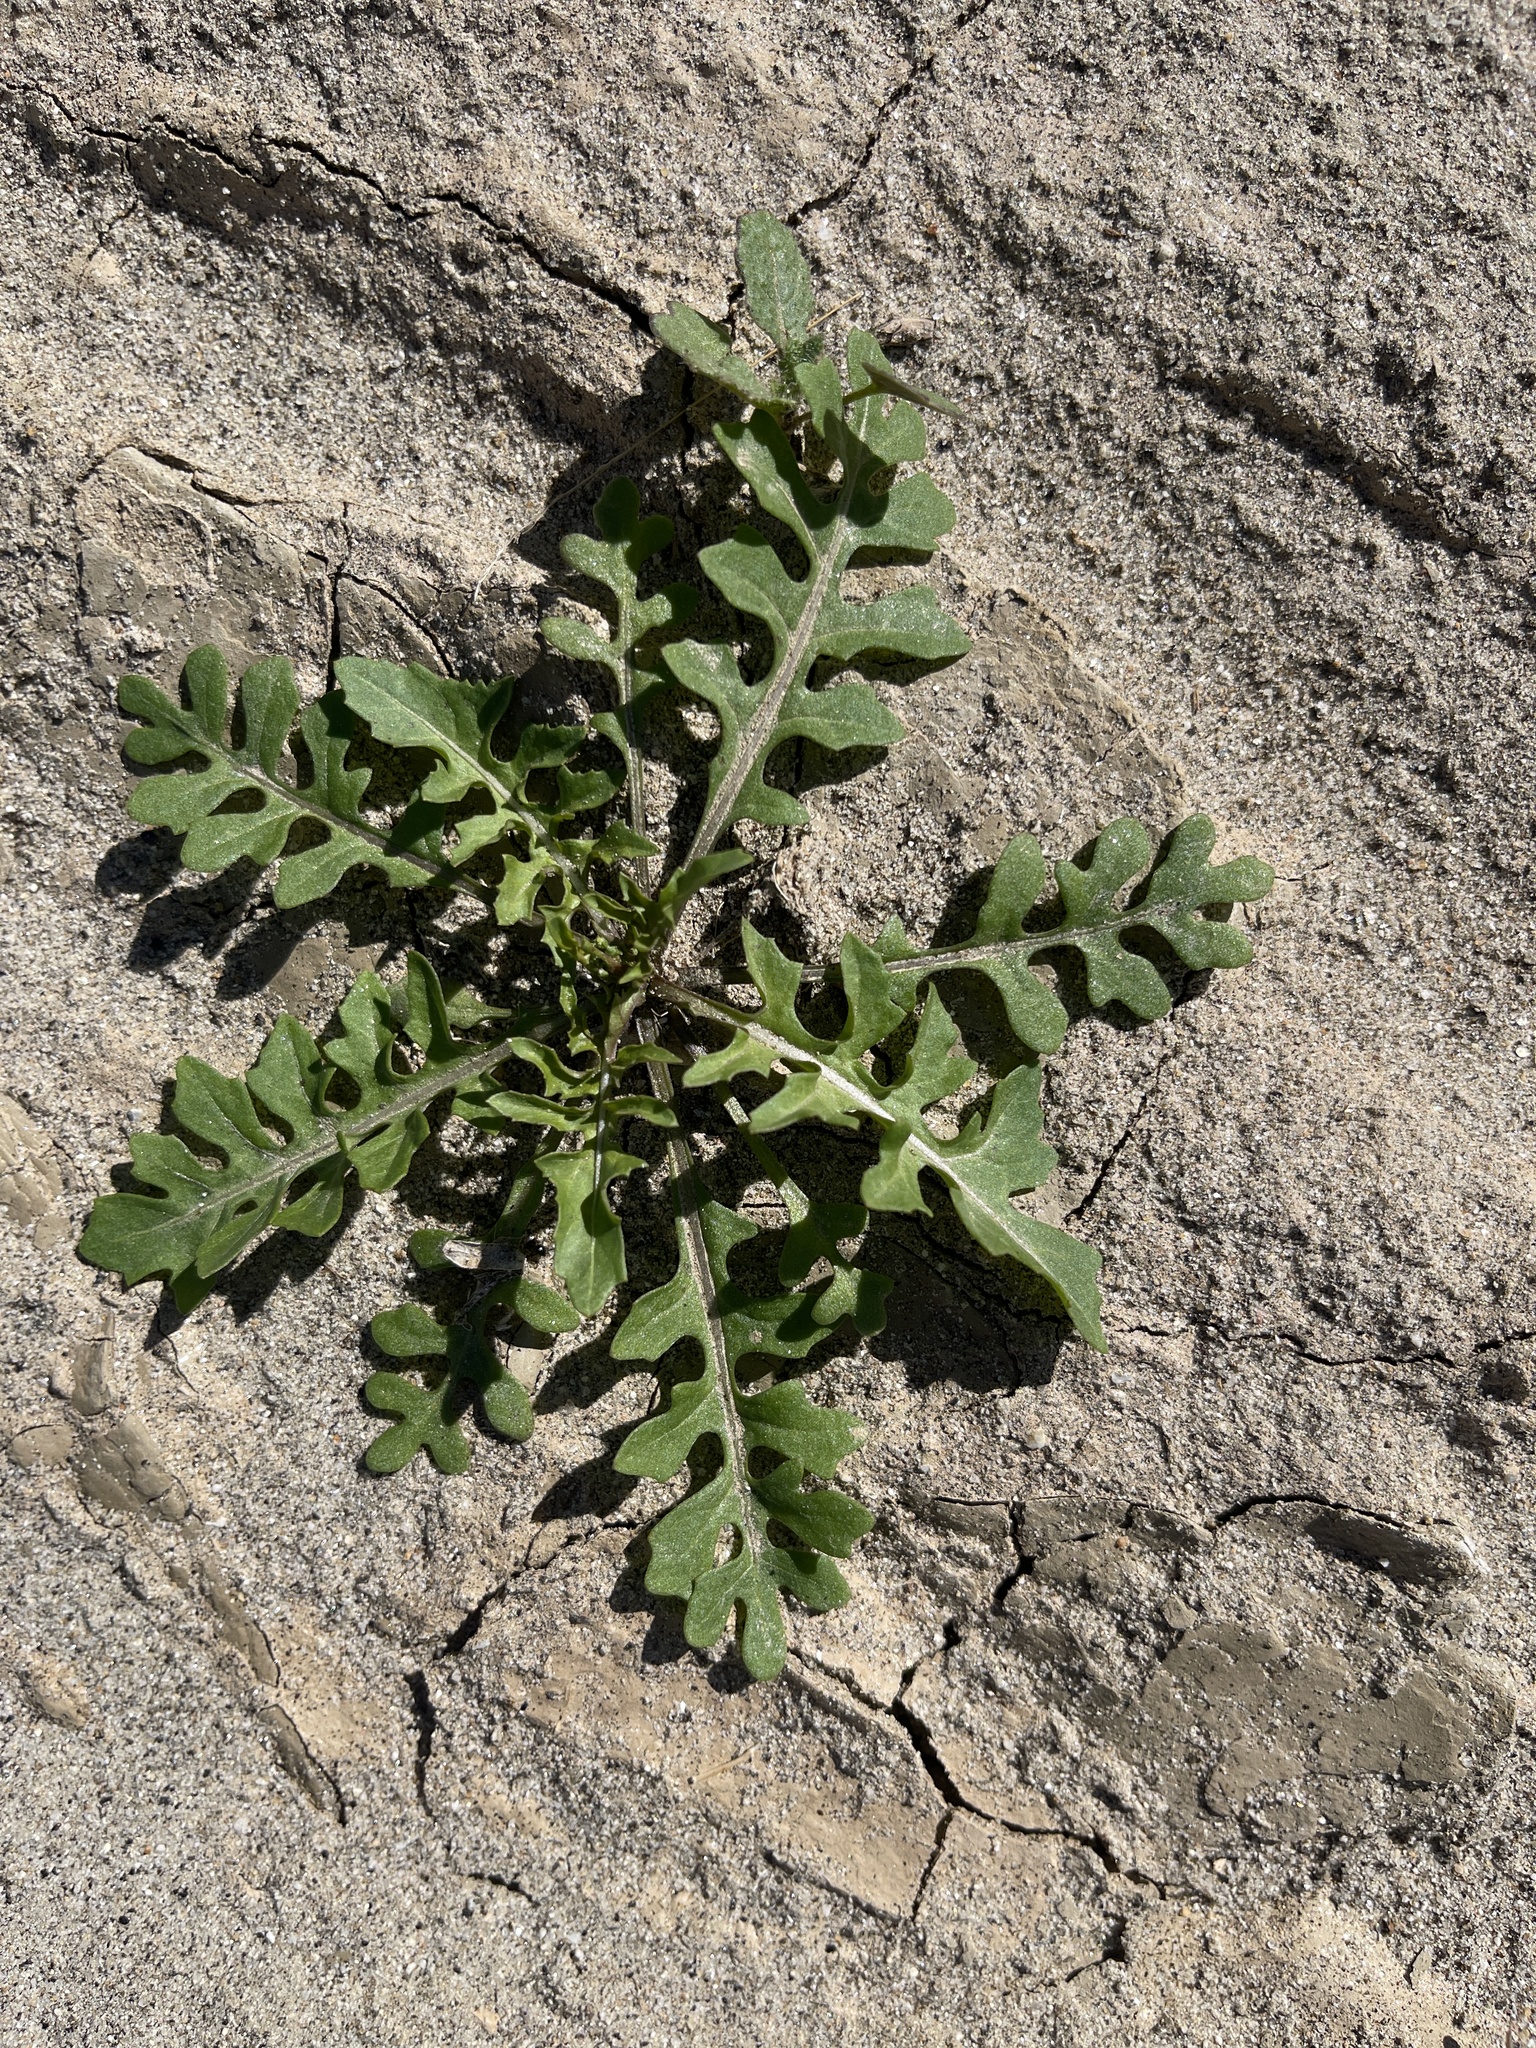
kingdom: Plantae
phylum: Tracheophyta
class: Magnoliopsida
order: Brassicales
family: Brassicaceae
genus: Sisymbrium
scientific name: Sisymbrium irio
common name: London rocket
